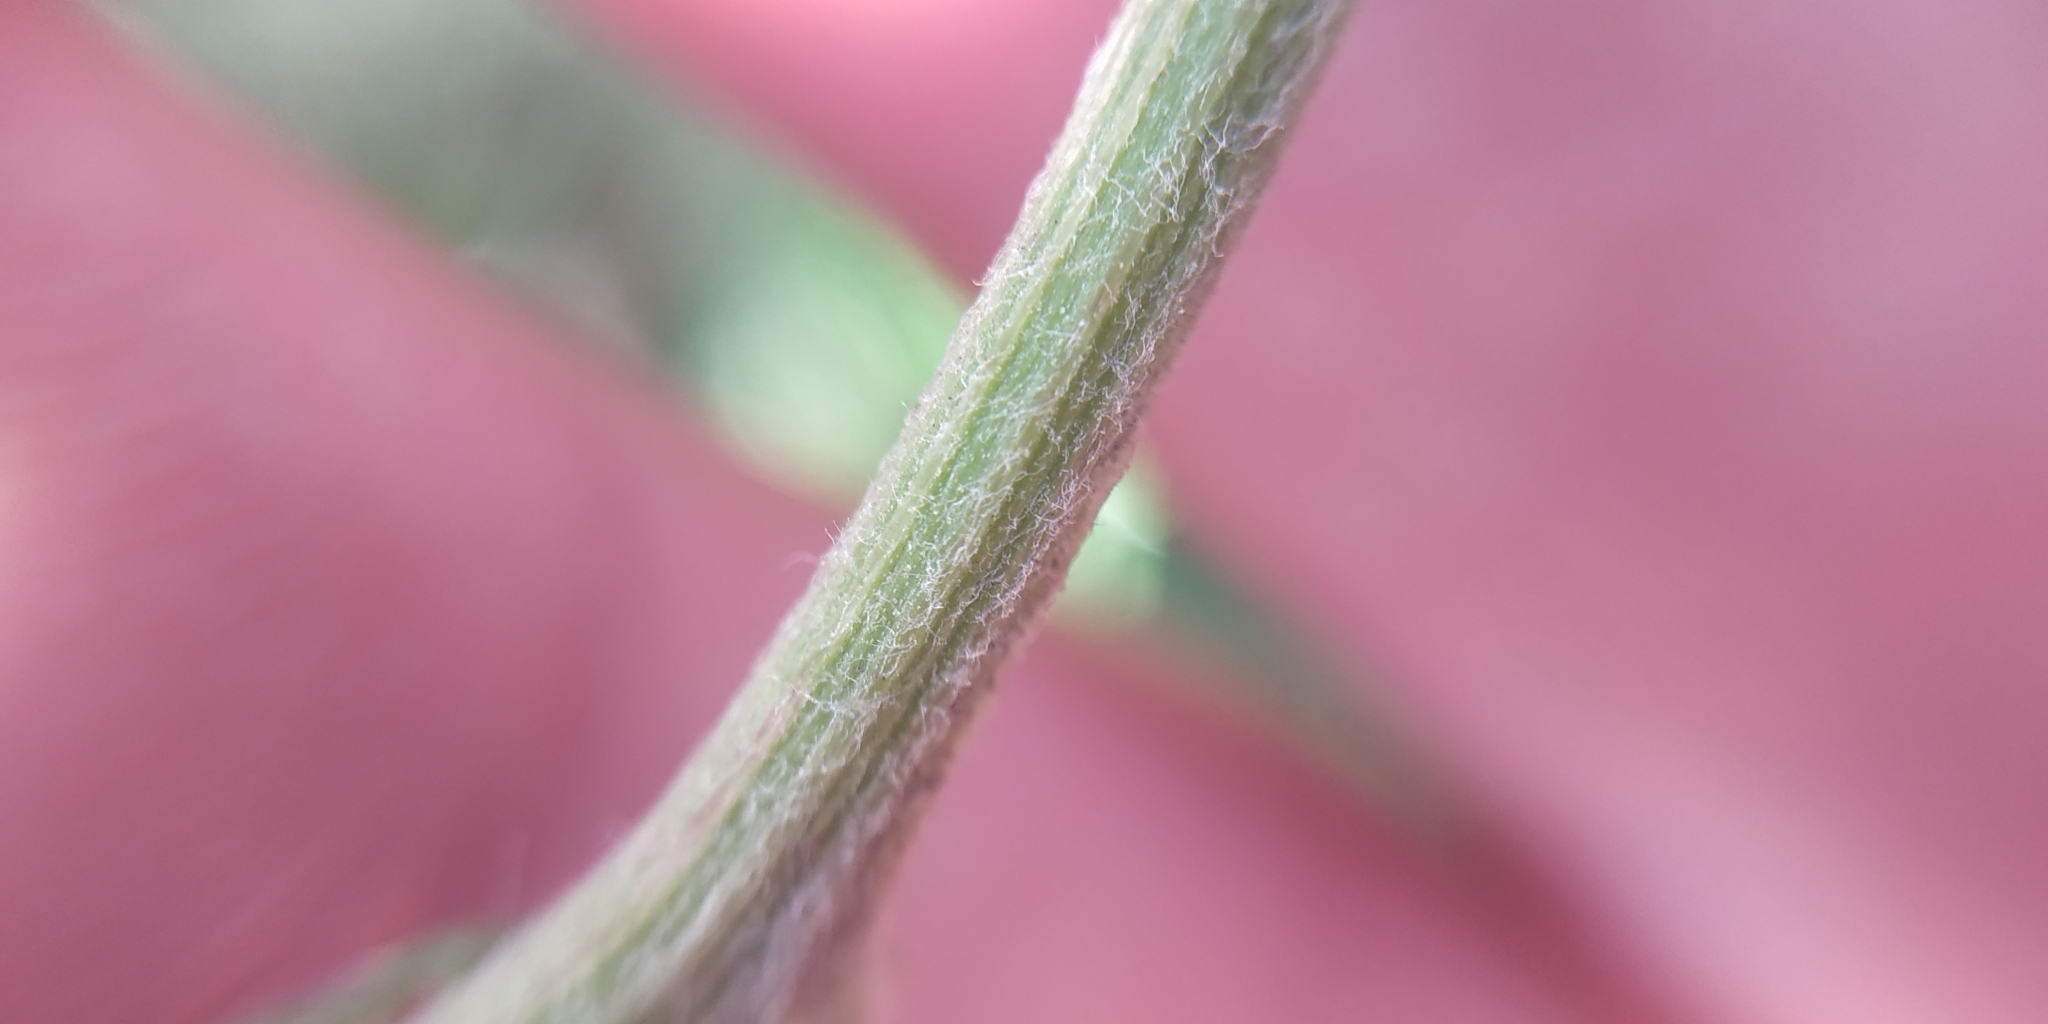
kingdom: Plantae
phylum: Tracheophyta
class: Magnoliopsida
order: Asterales
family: Asteraceae
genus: Achillea
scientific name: Achillea millefolium
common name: Yarrow
